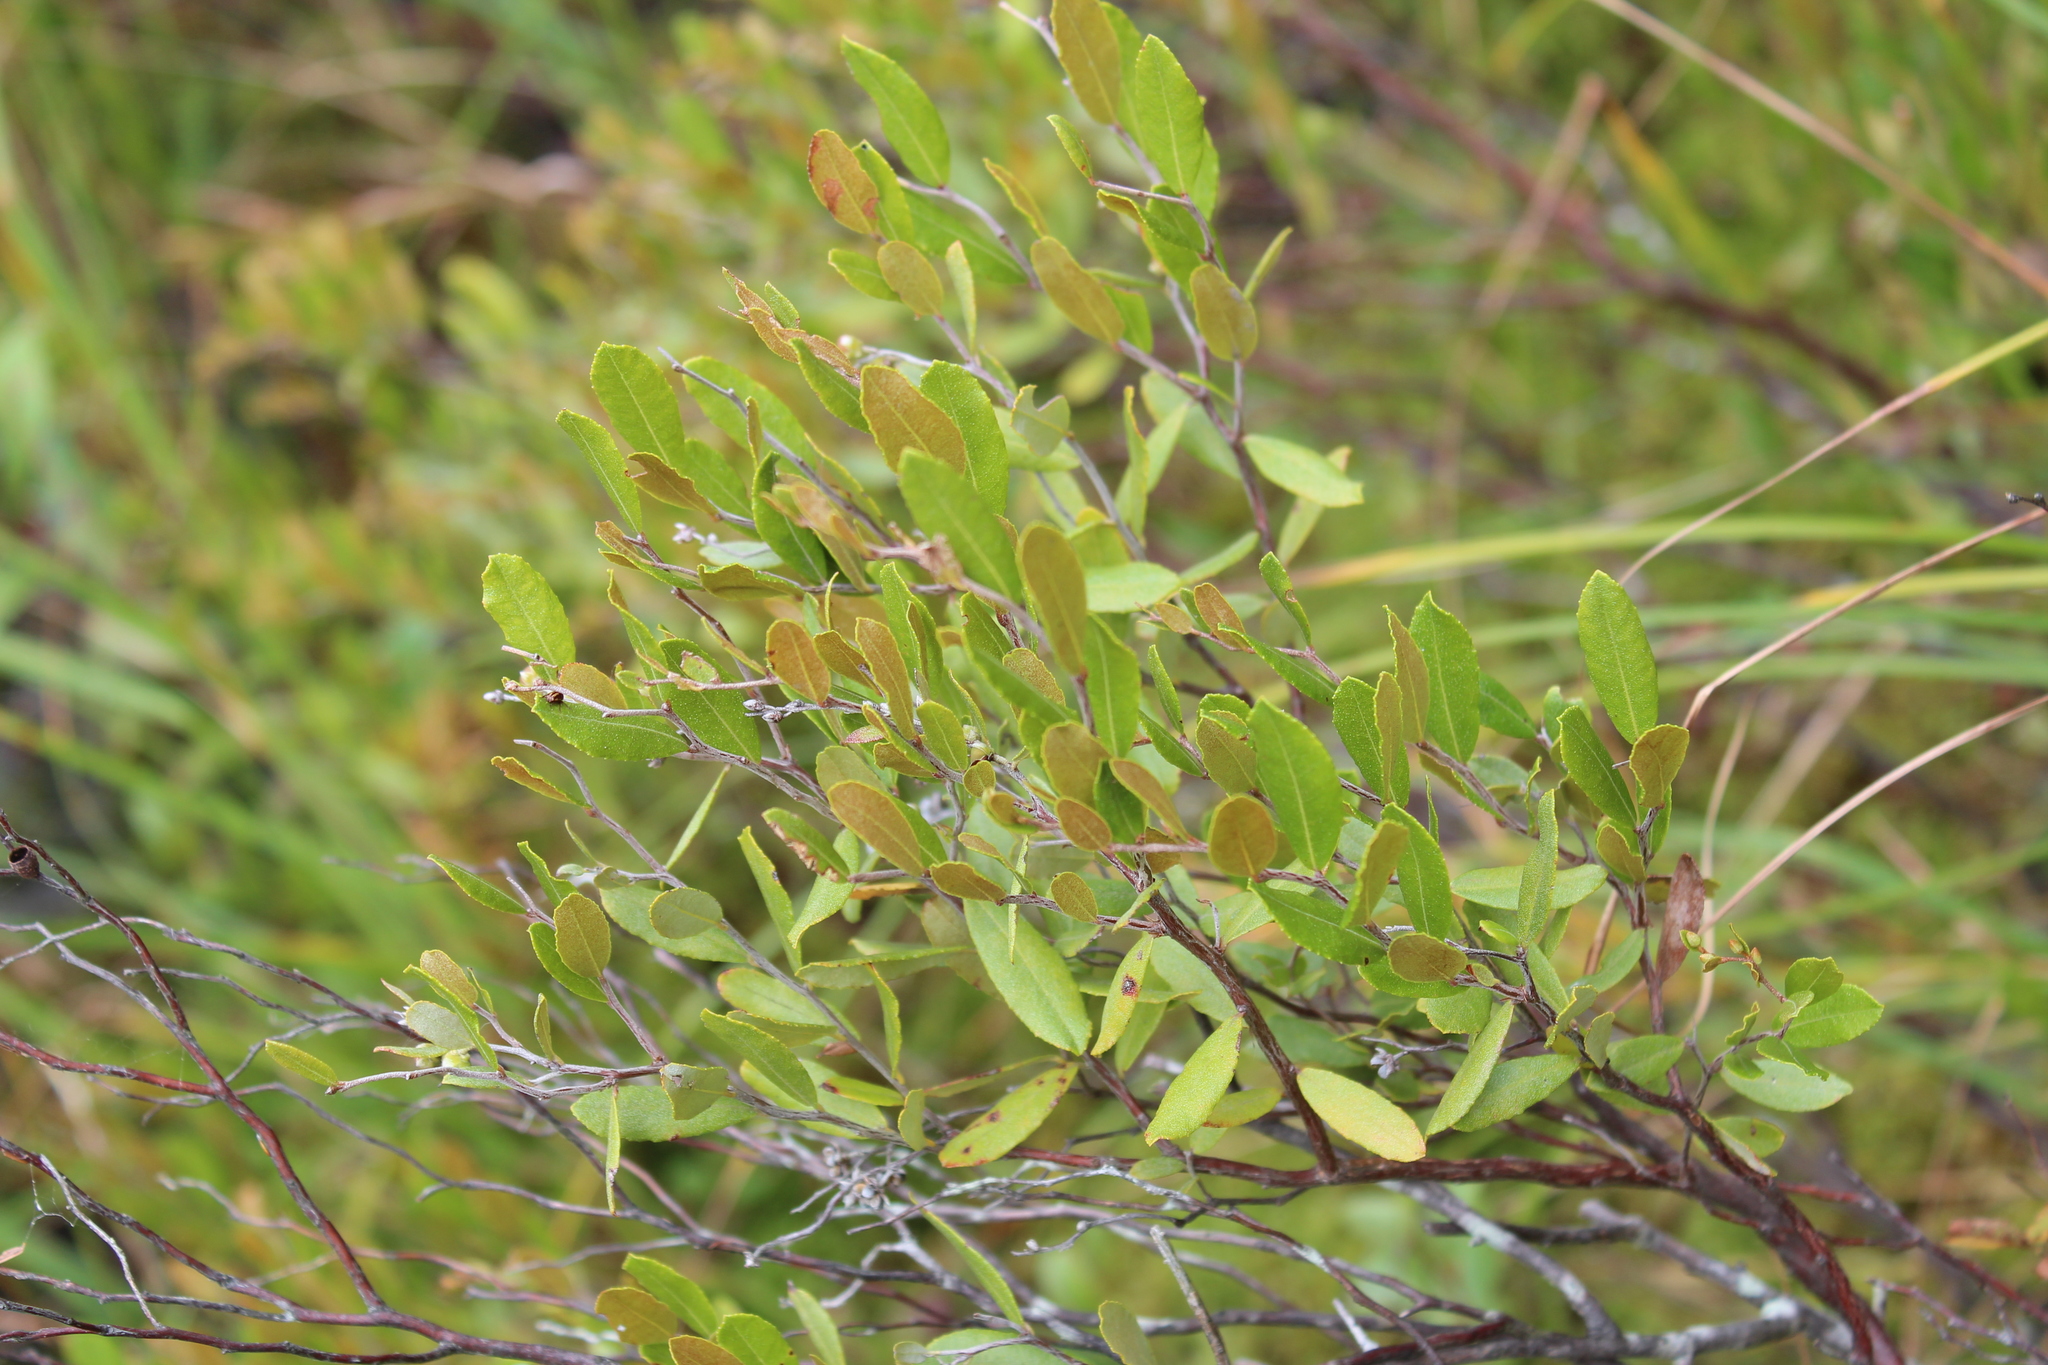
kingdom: Plantae
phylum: Tracheophyta
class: Magnoliopsida
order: Ericales
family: Ericaceae
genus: Chamaedaphne
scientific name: Chamaedaphne calyculata
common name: Leatherleaf
